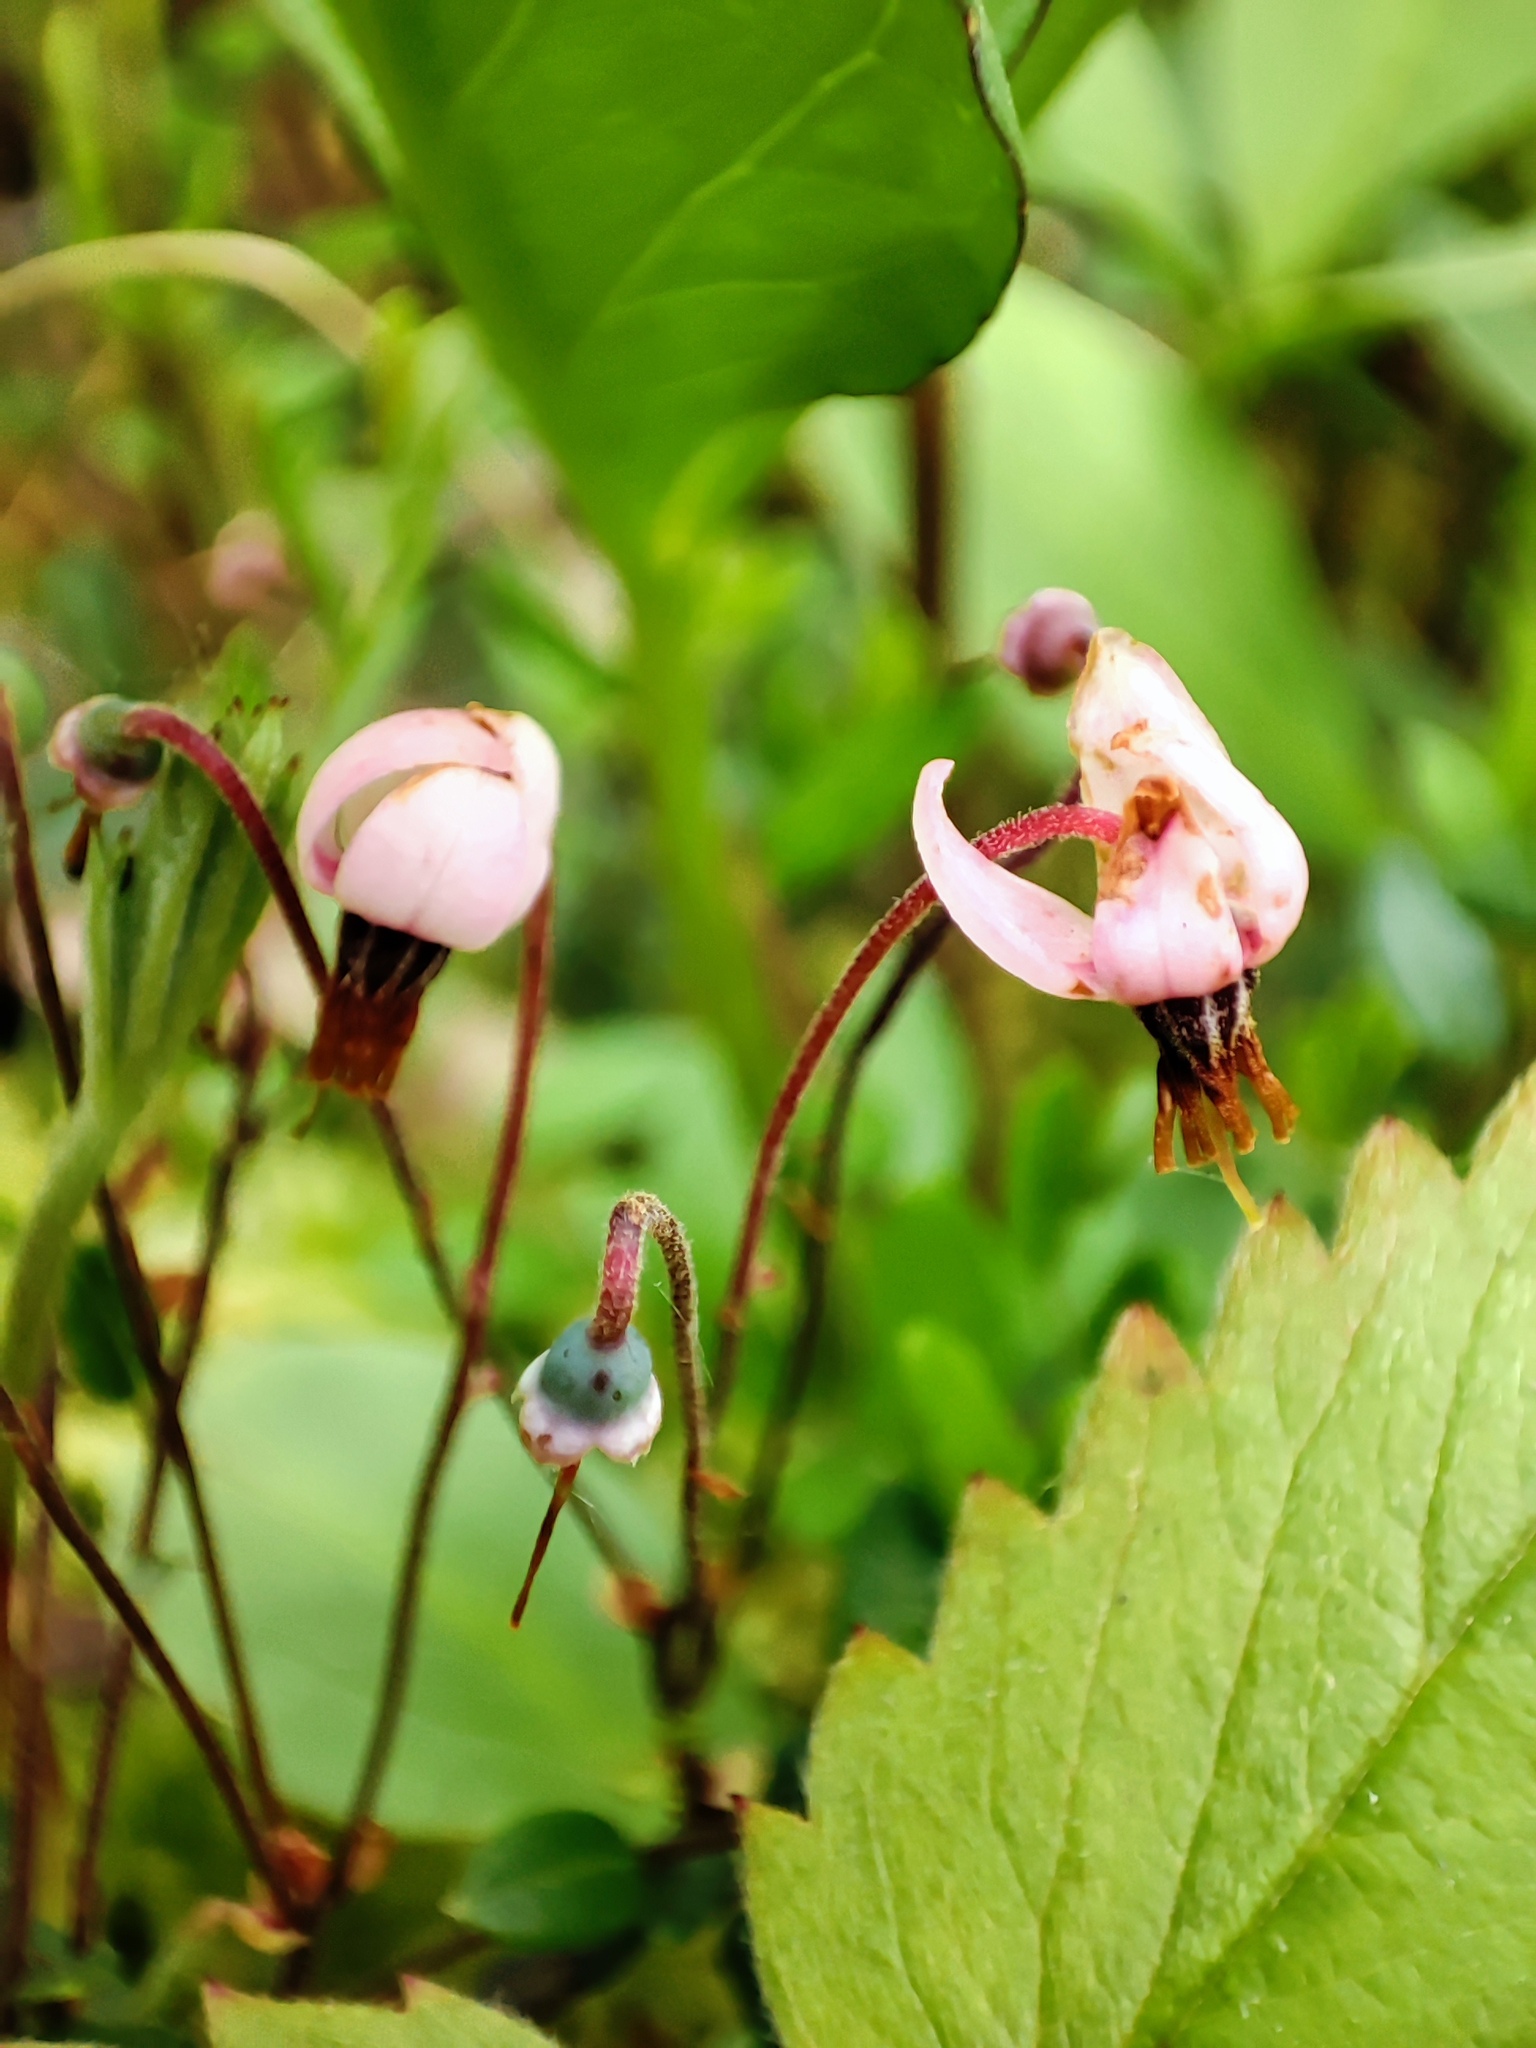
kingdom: Plantae
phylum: Tracheophyta
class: Magnoliopsida
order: Ericales
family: Ericaceae
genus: Vaccinium
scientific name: Vaccinium oxycoccos
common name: Cranberry
